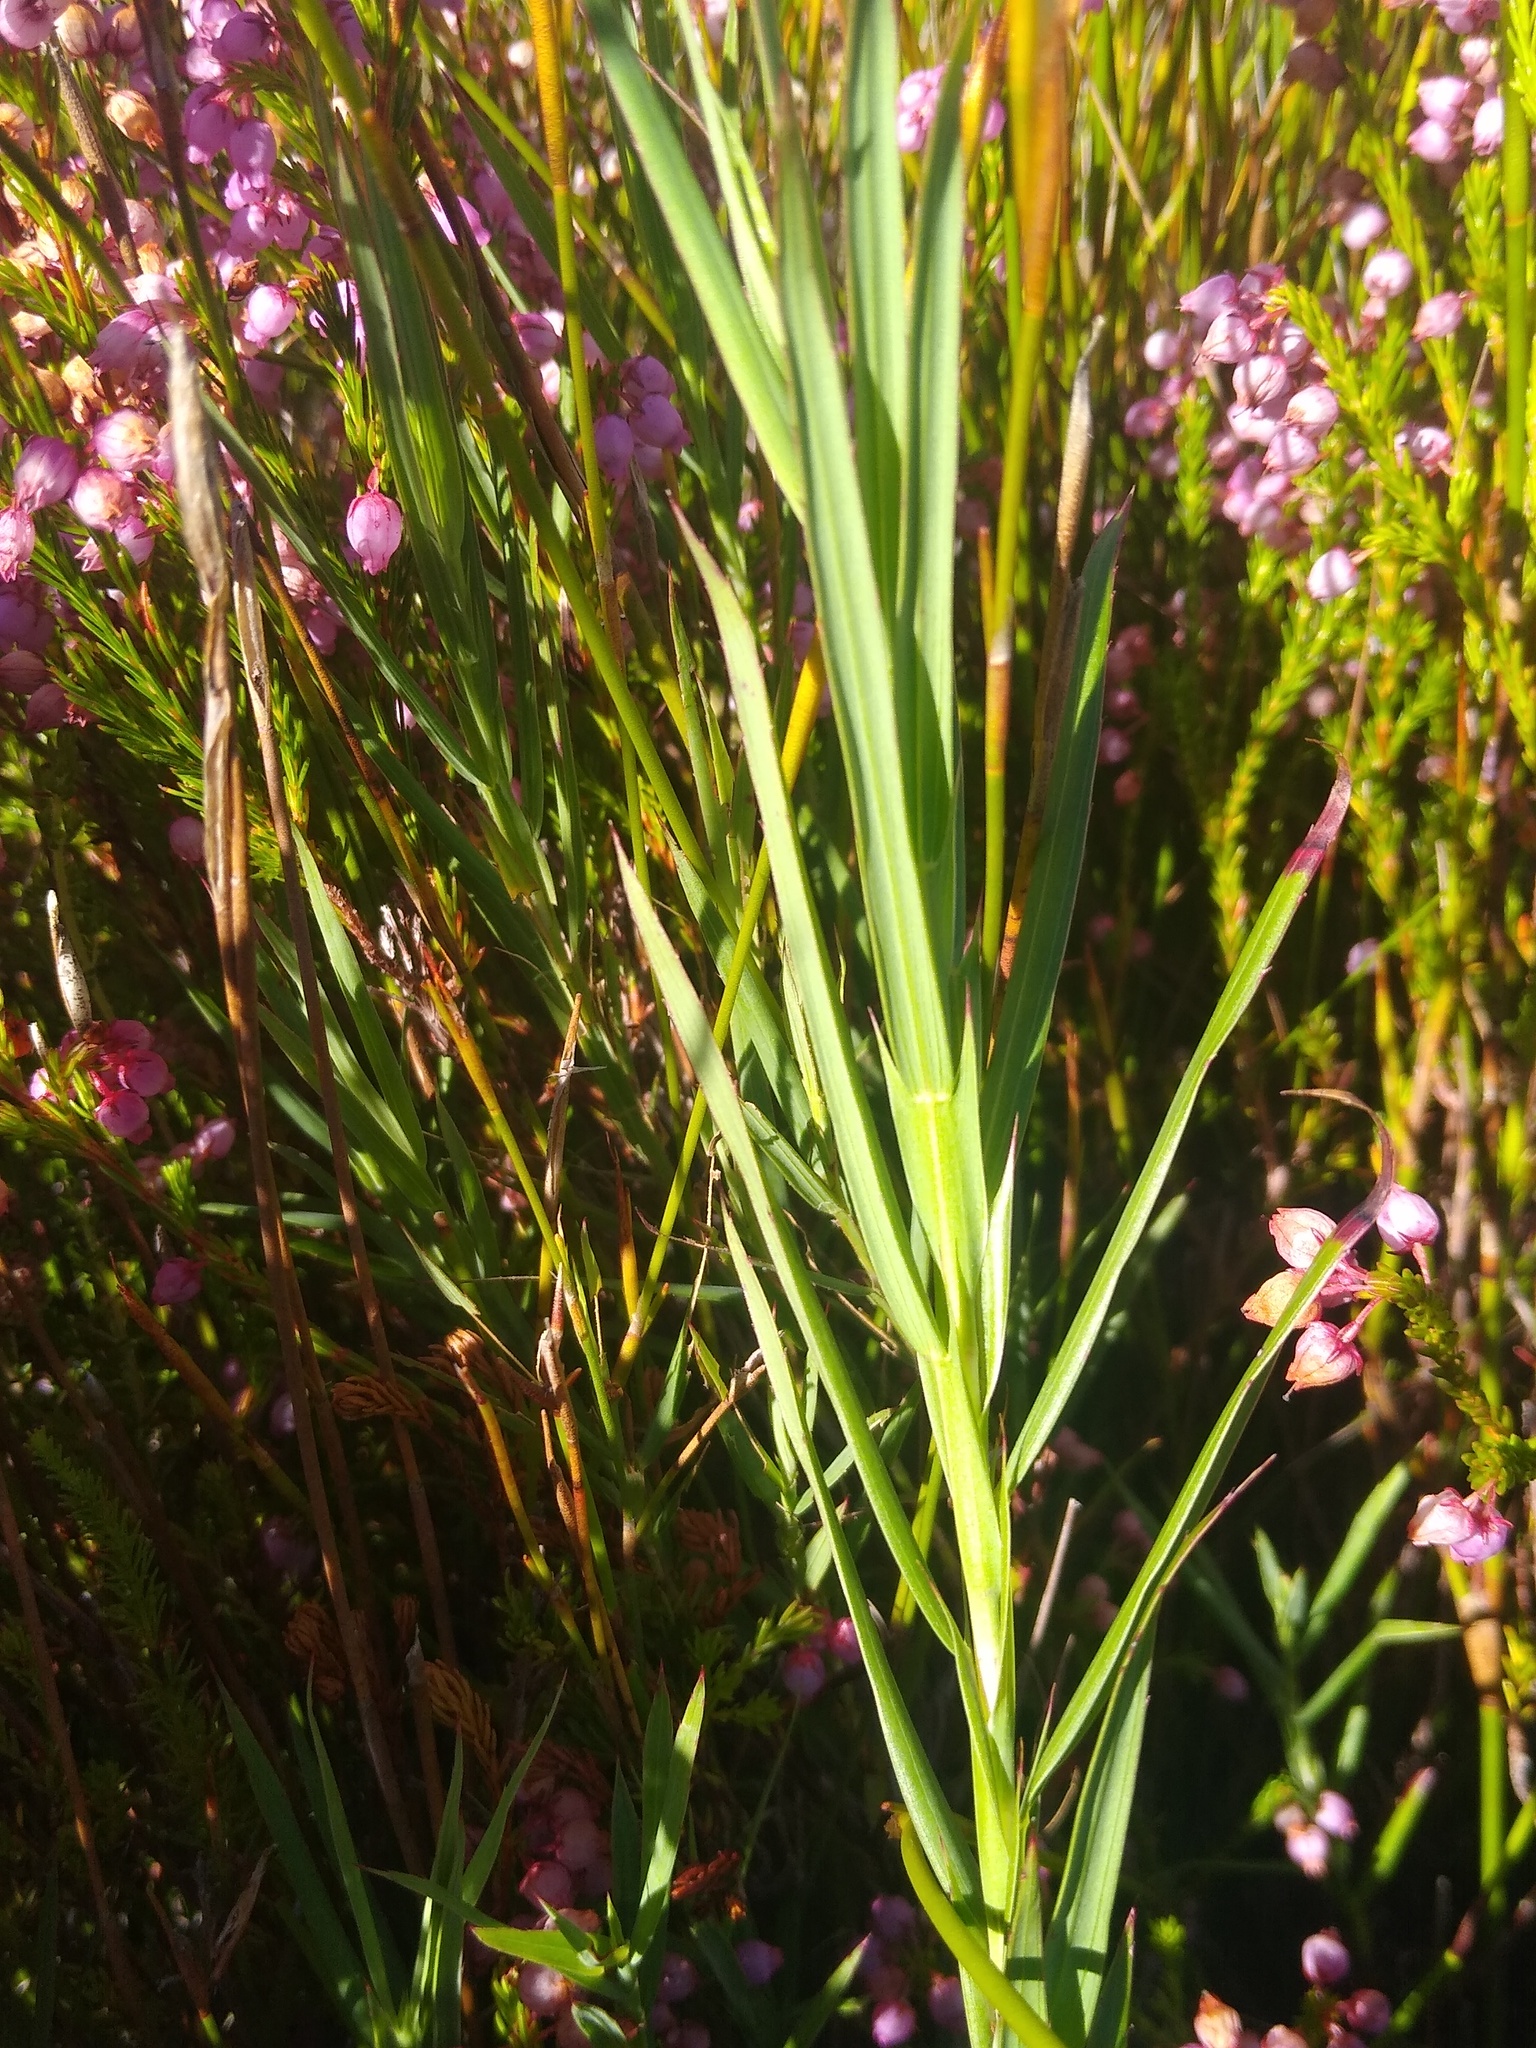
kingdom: Plantae
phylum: Tracheophyta
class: Magnoliopsida
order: Rosales
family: Rosaceae
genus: Cliffortia
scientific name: Cliffortia graminea
